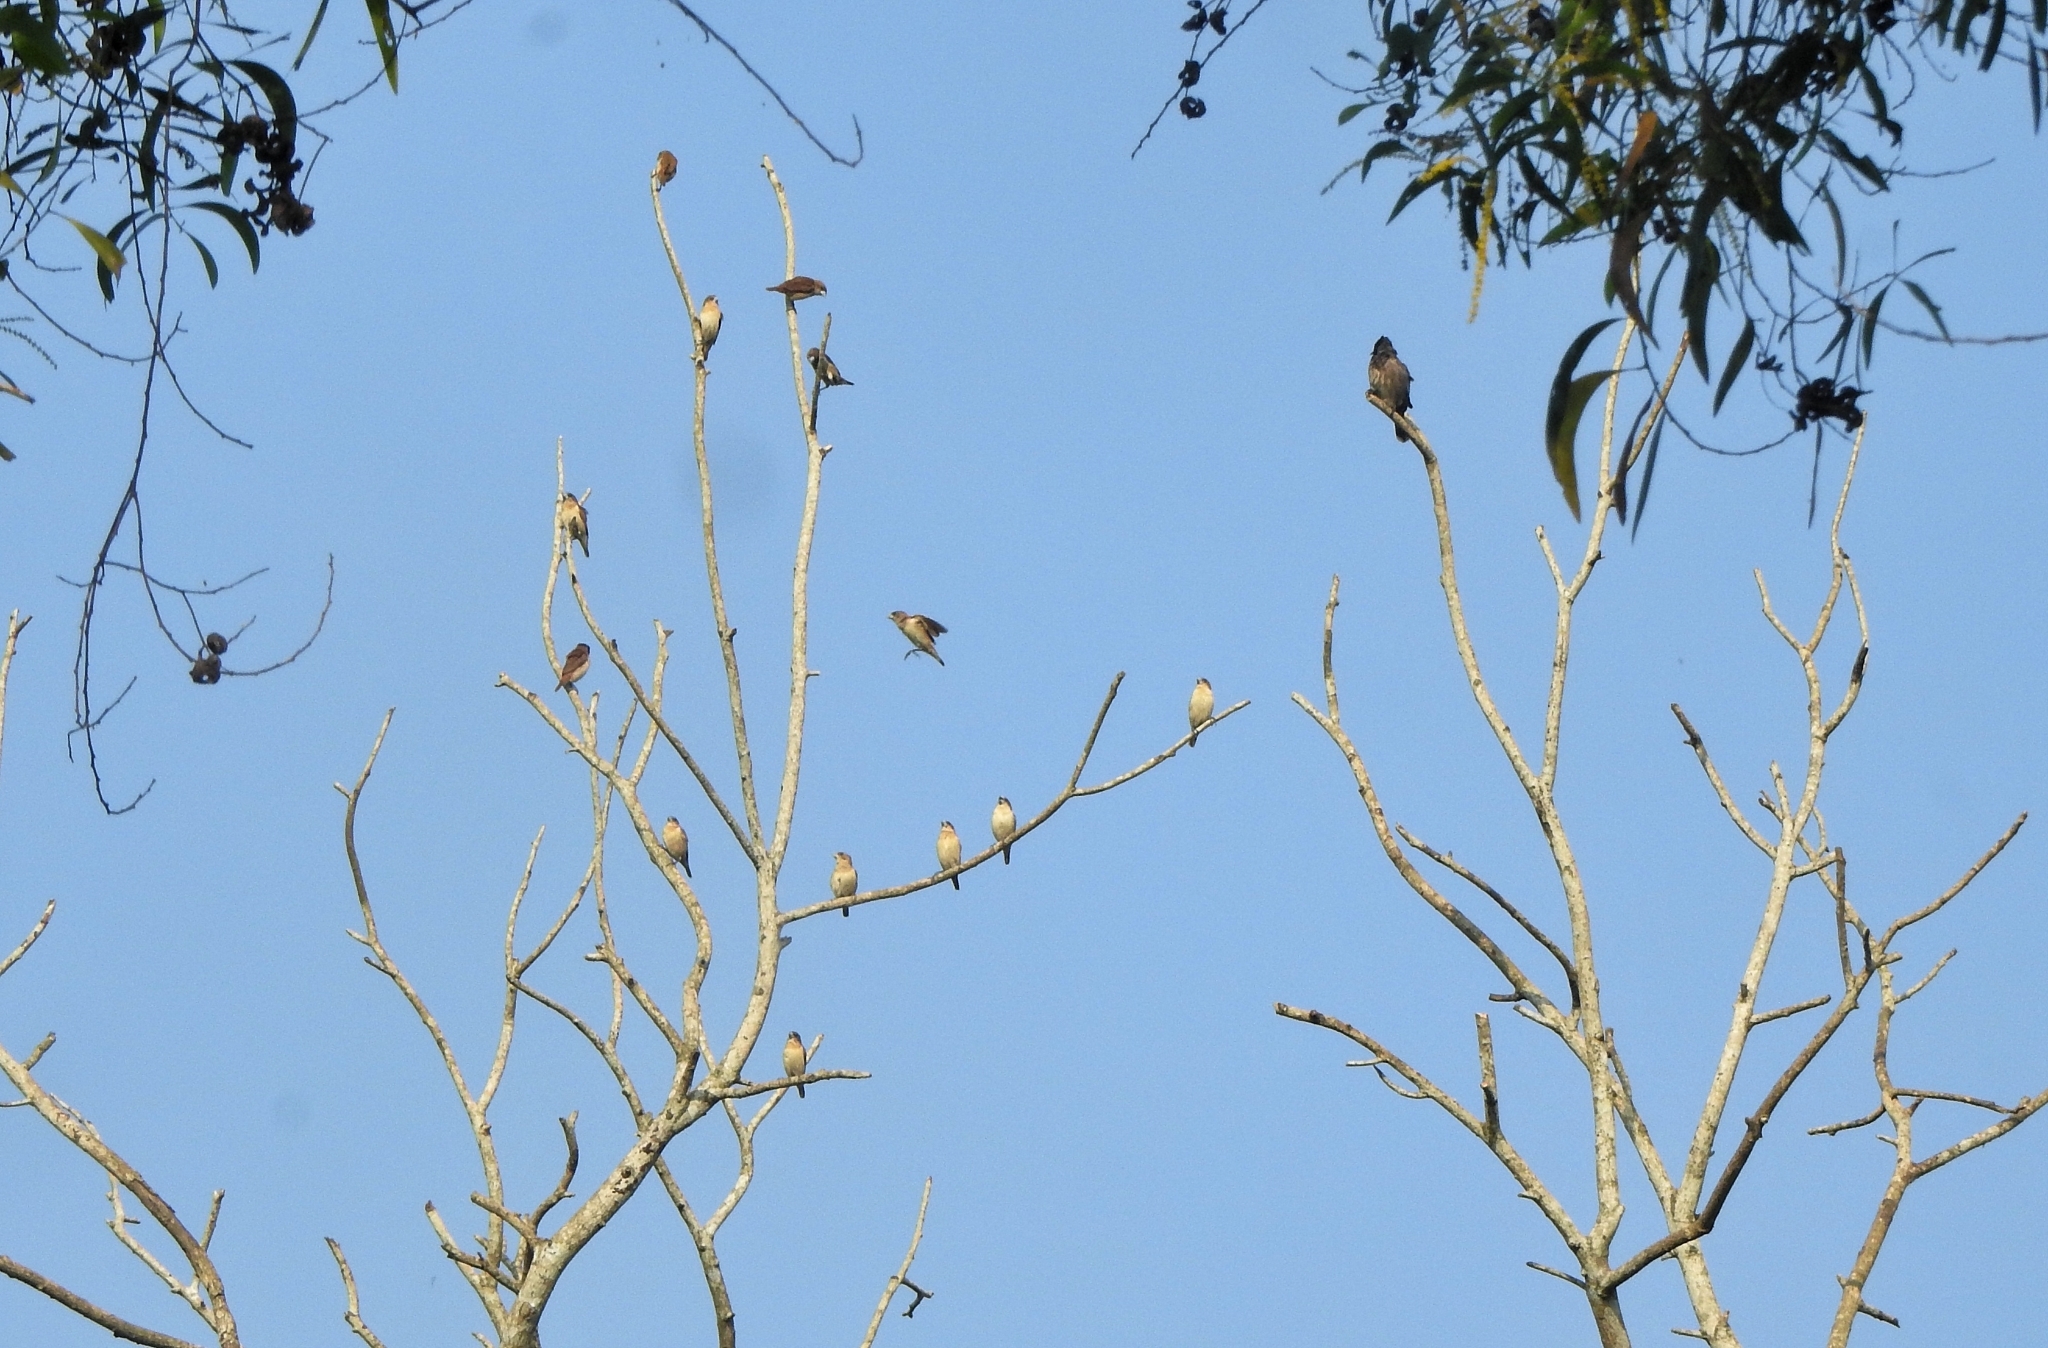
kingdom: Animalia
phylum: Chordata
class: Aves
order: Passeriformes
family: Estrildidae
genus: Lonchura
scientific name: Lonchura punctulata
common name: Scaly-breasted munia
